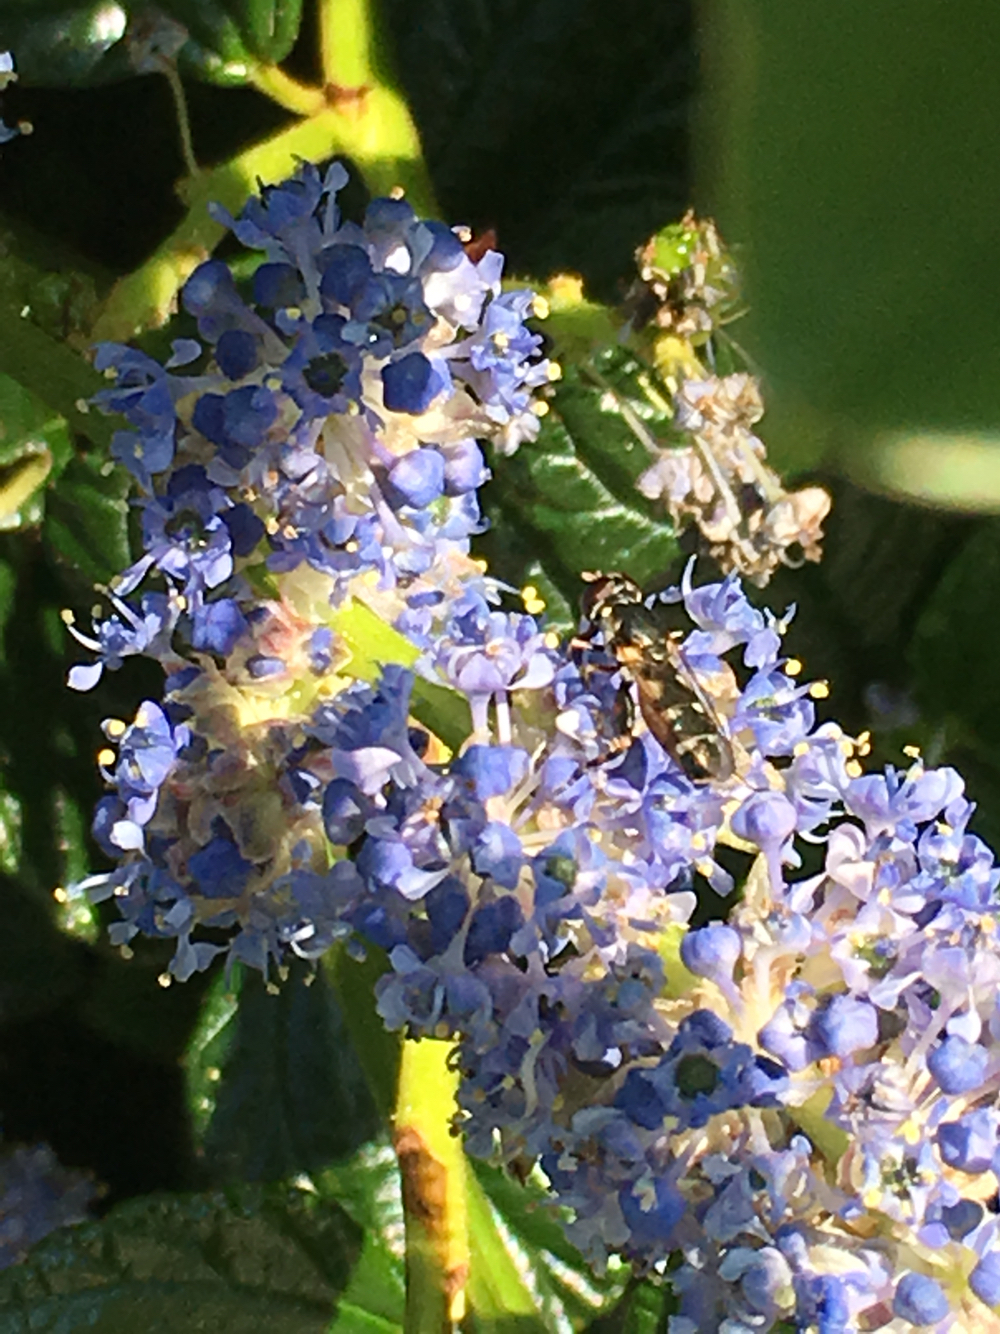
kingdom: Animalia
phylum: Arthropoda
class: Insecta
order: Diptera
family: Syrphidae
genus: Syritta
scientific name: Syritta pipiens
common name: Hover fly
